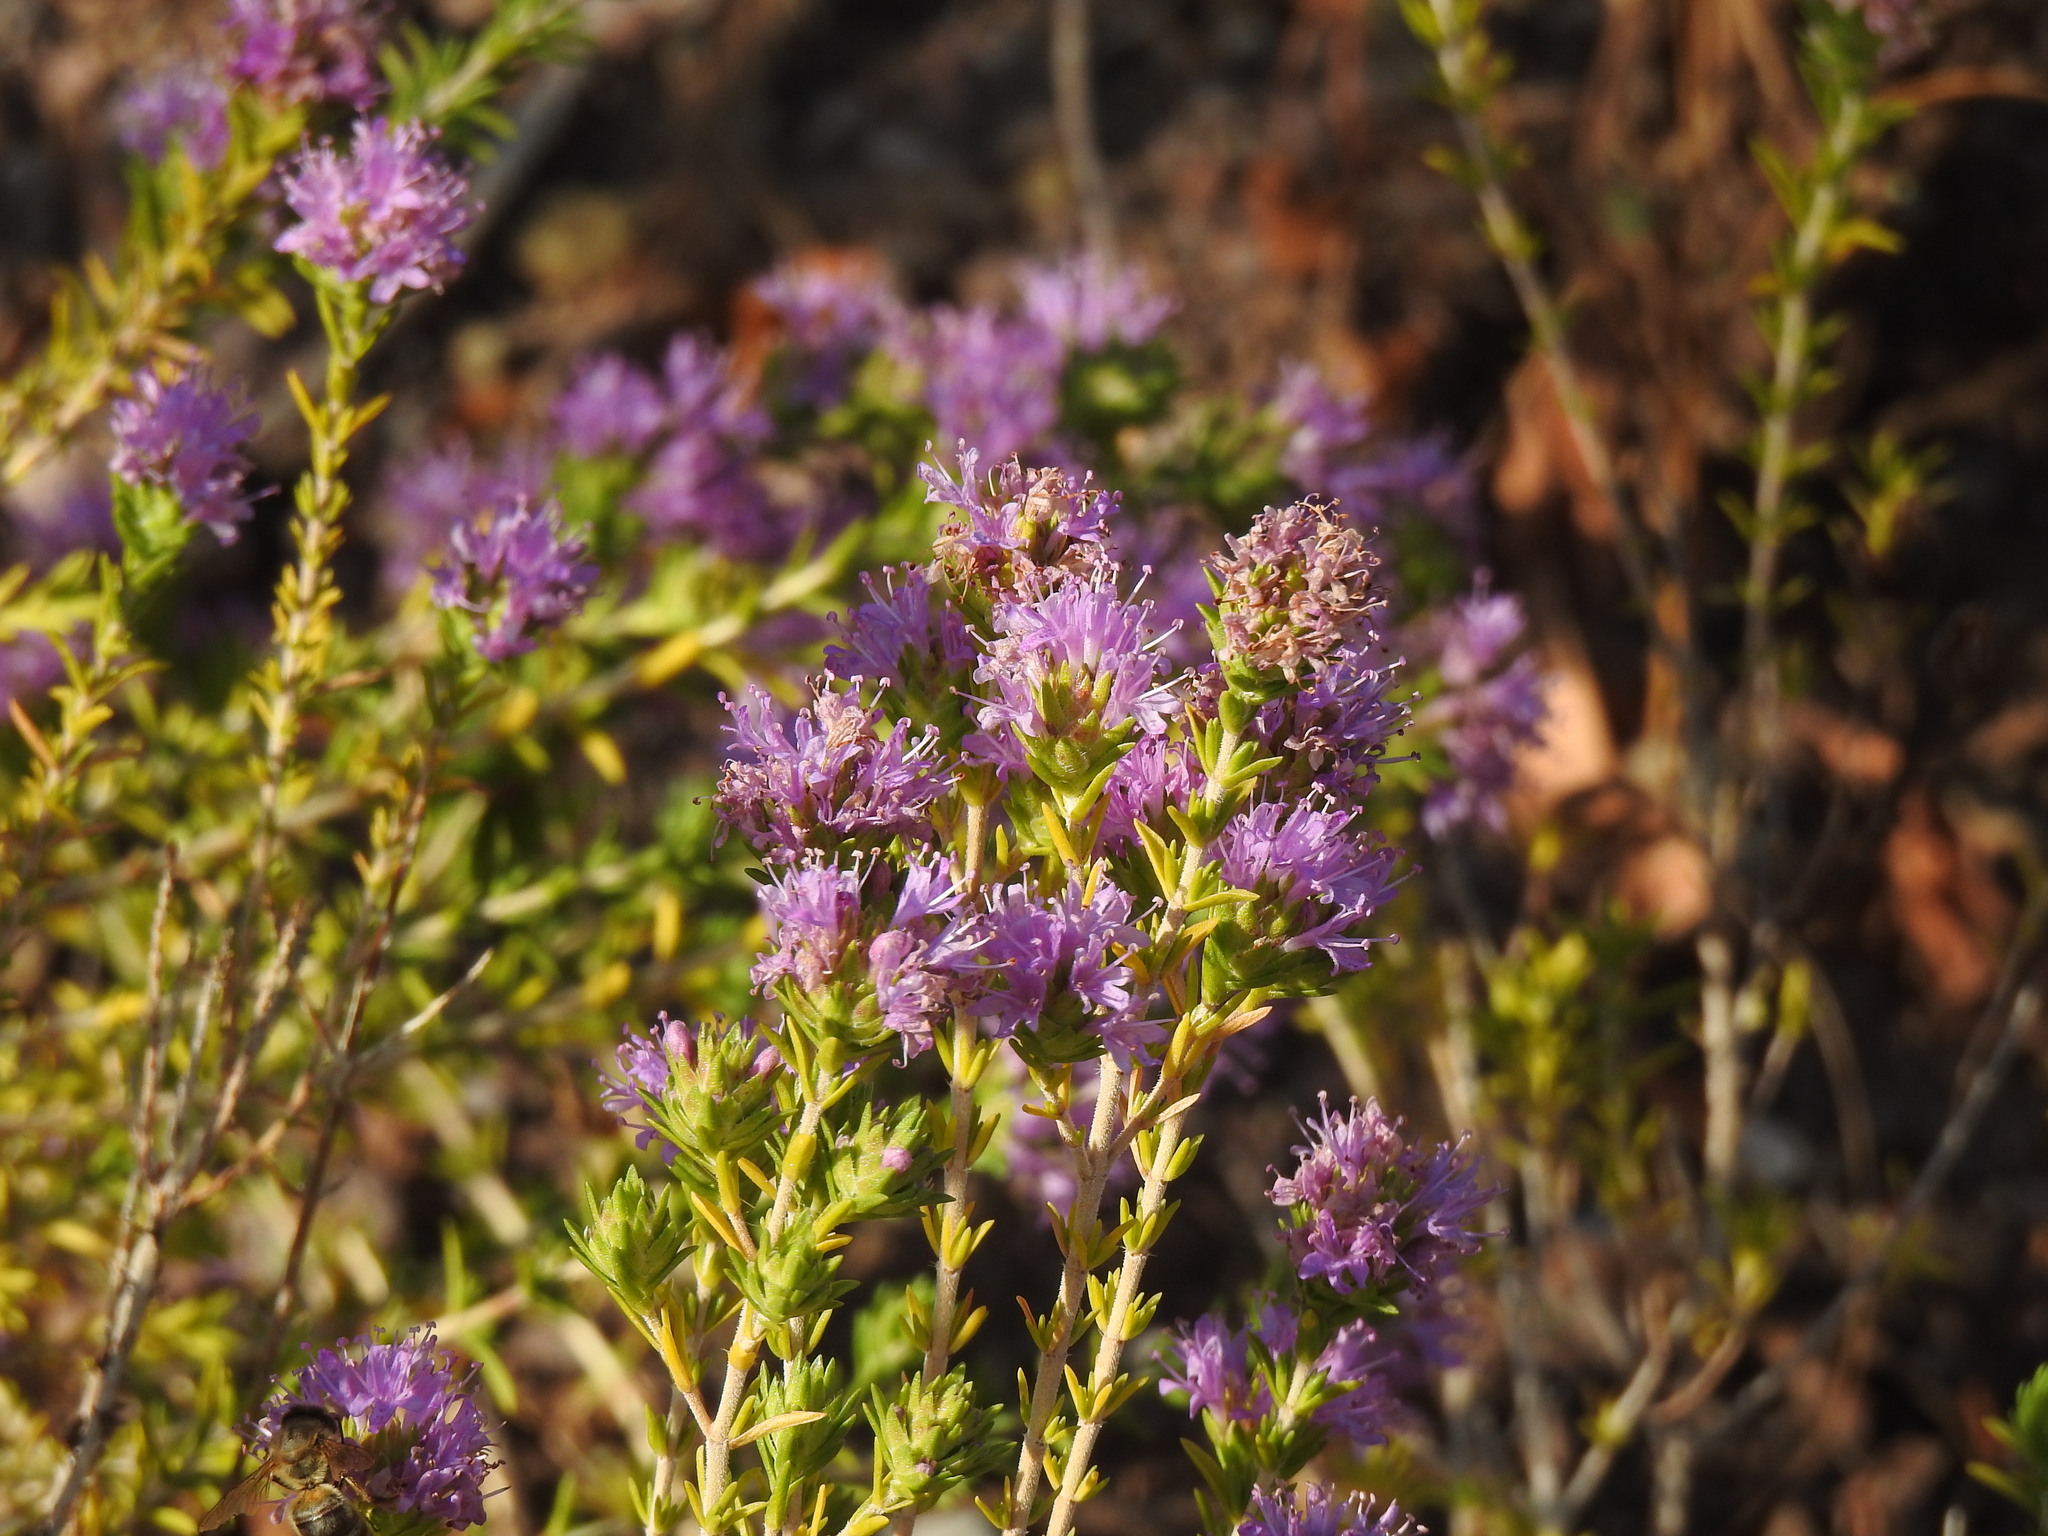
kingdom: Plantae
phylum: Tracheophyta
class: Magnoliopsida
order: Lamiales
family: Lamiaceae
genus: Thymbra
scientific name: Thymbra capitata
